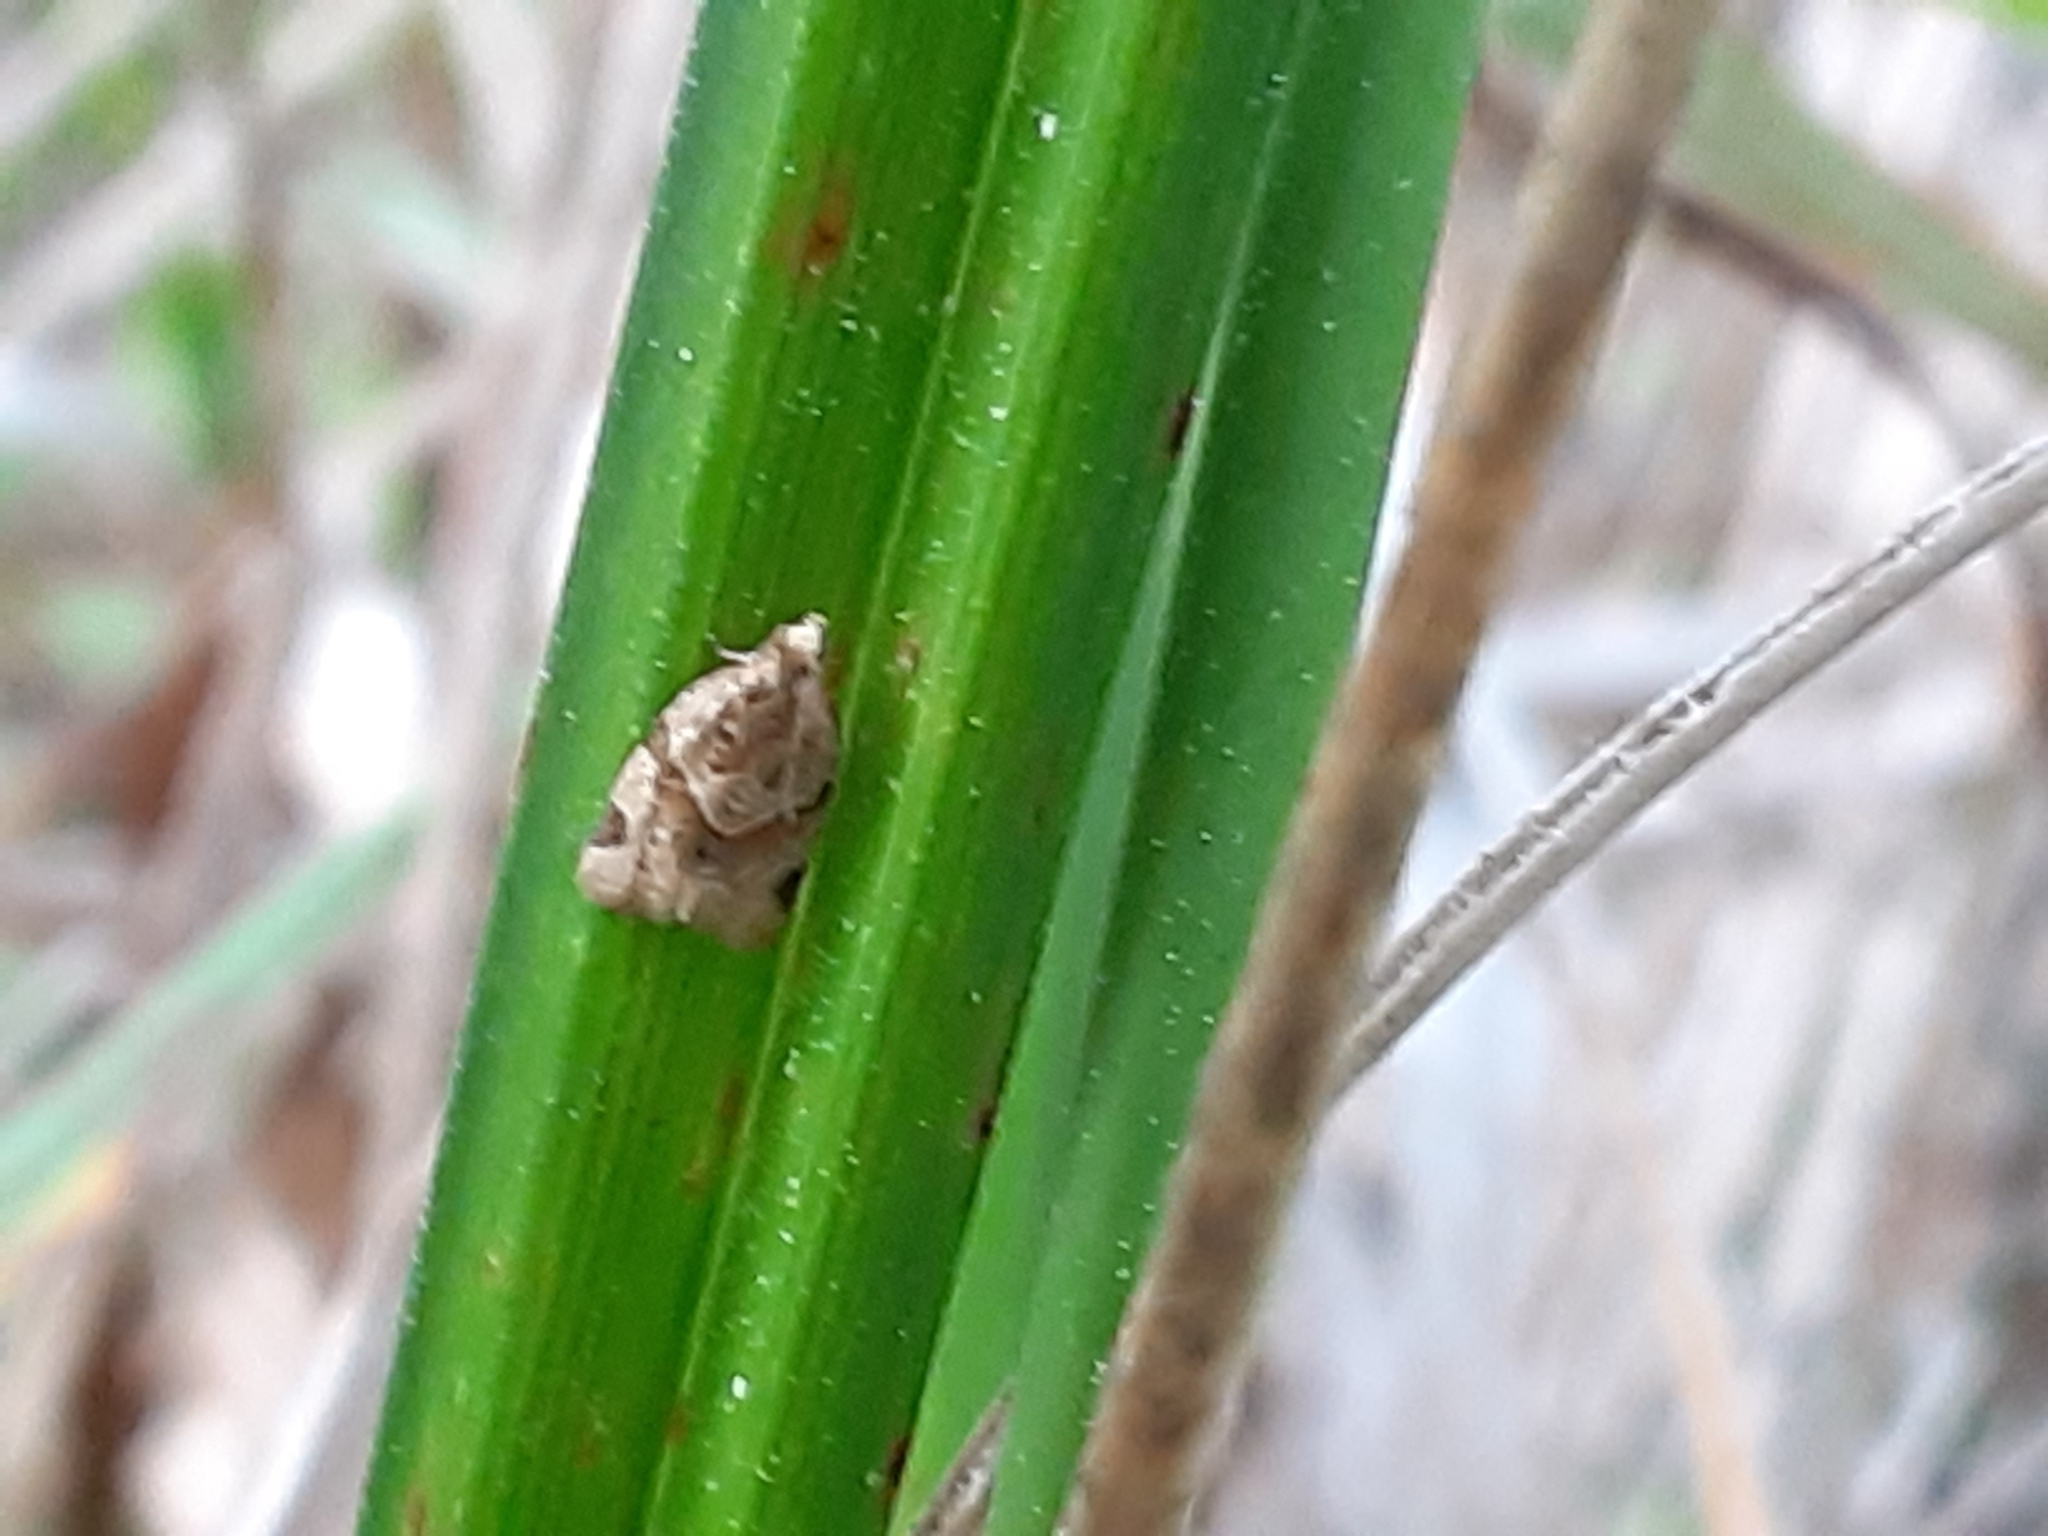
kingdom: Animalia
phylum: Arthropoda
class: Insecta
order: Lepidoptera
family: Tortricidae
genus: Clepsis
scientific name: Clepsis peritana
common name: Garden tortrix
